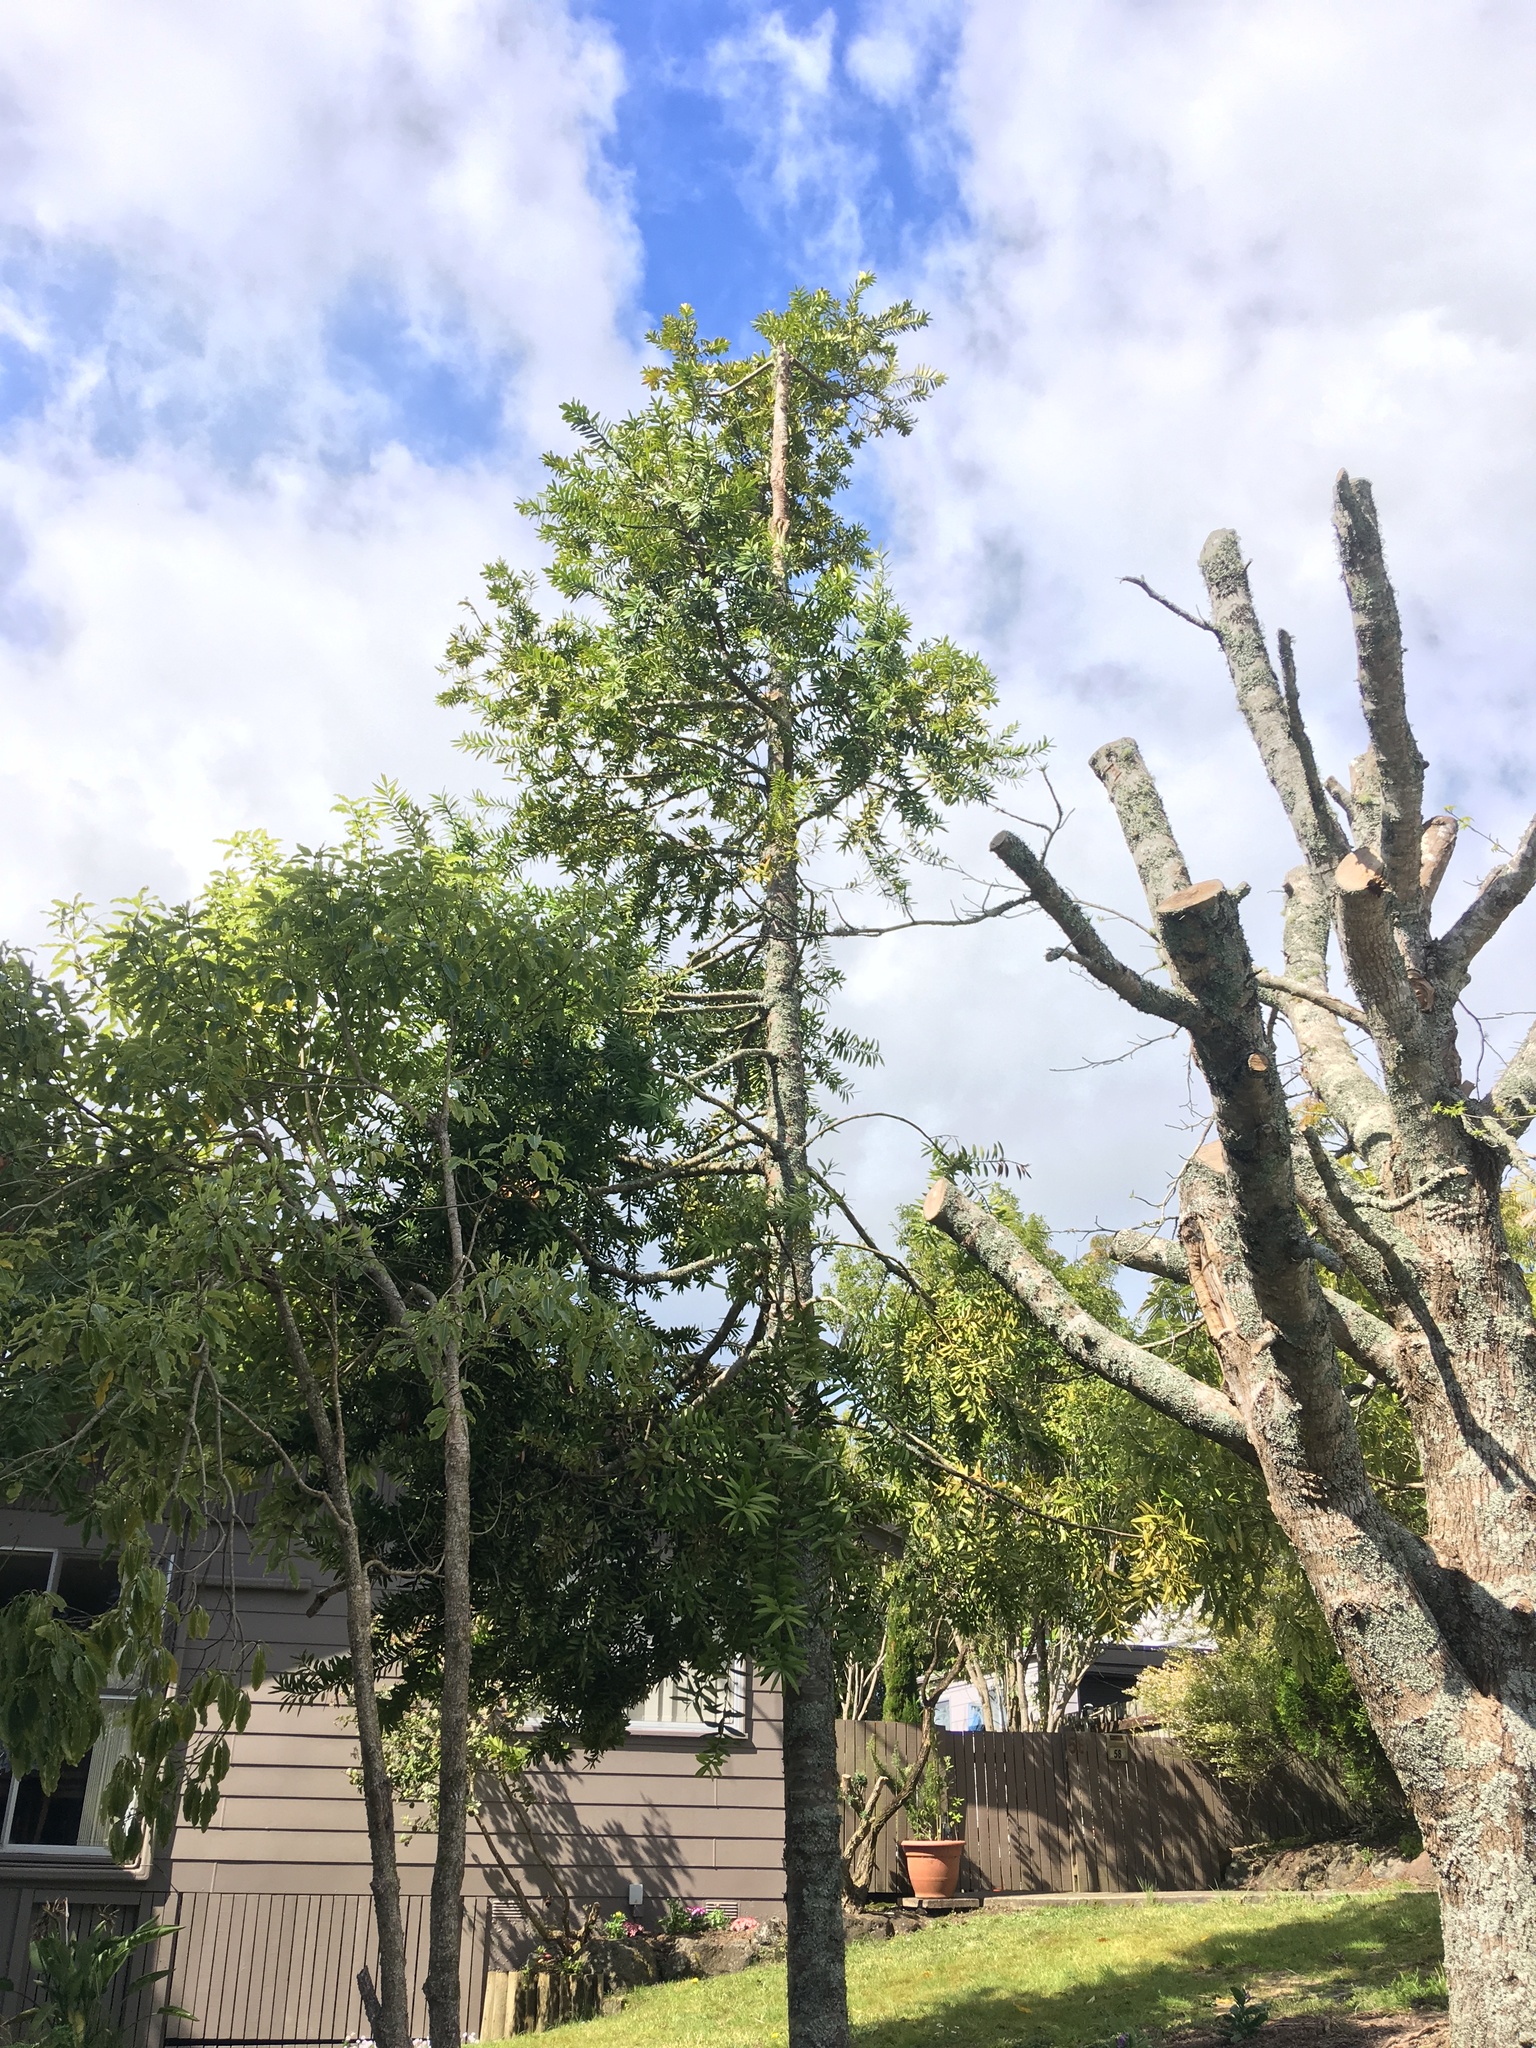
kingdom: Plantae
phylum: Tracheophyta
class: Pinopsida
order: Pinales
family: Araucariaceae
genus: Agathis
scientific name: Agathis australis
